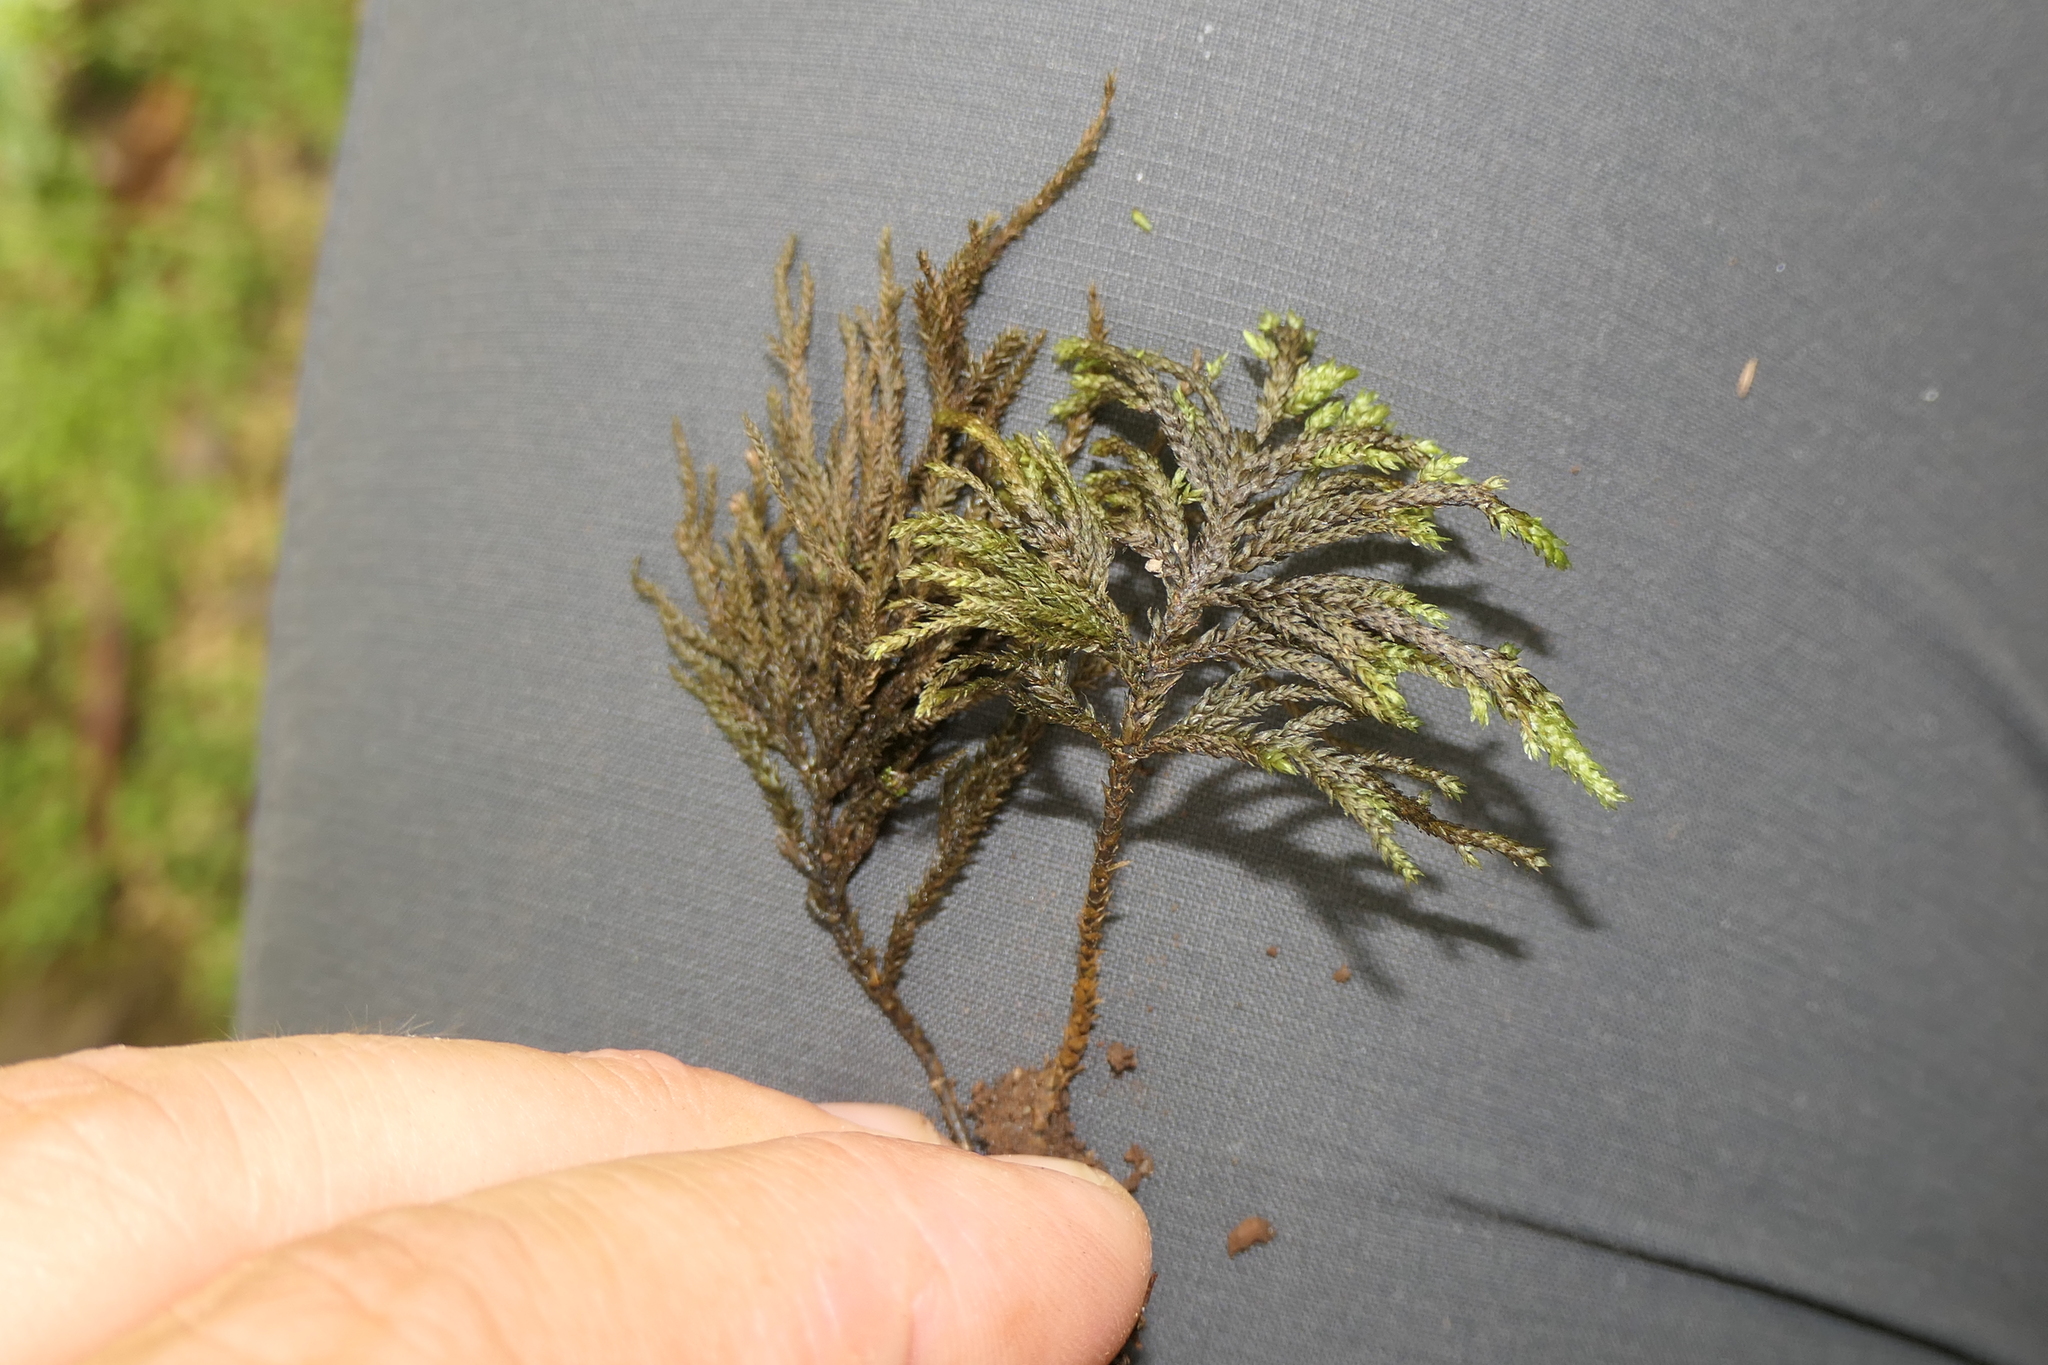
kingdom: Plantae
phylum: Bryophyta
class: Bryopsida
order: Hypnales
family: Neckeraceae
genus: Thamnobryum
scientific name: Thamnobryum alopecurum
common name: Fox-tail feather-moss
